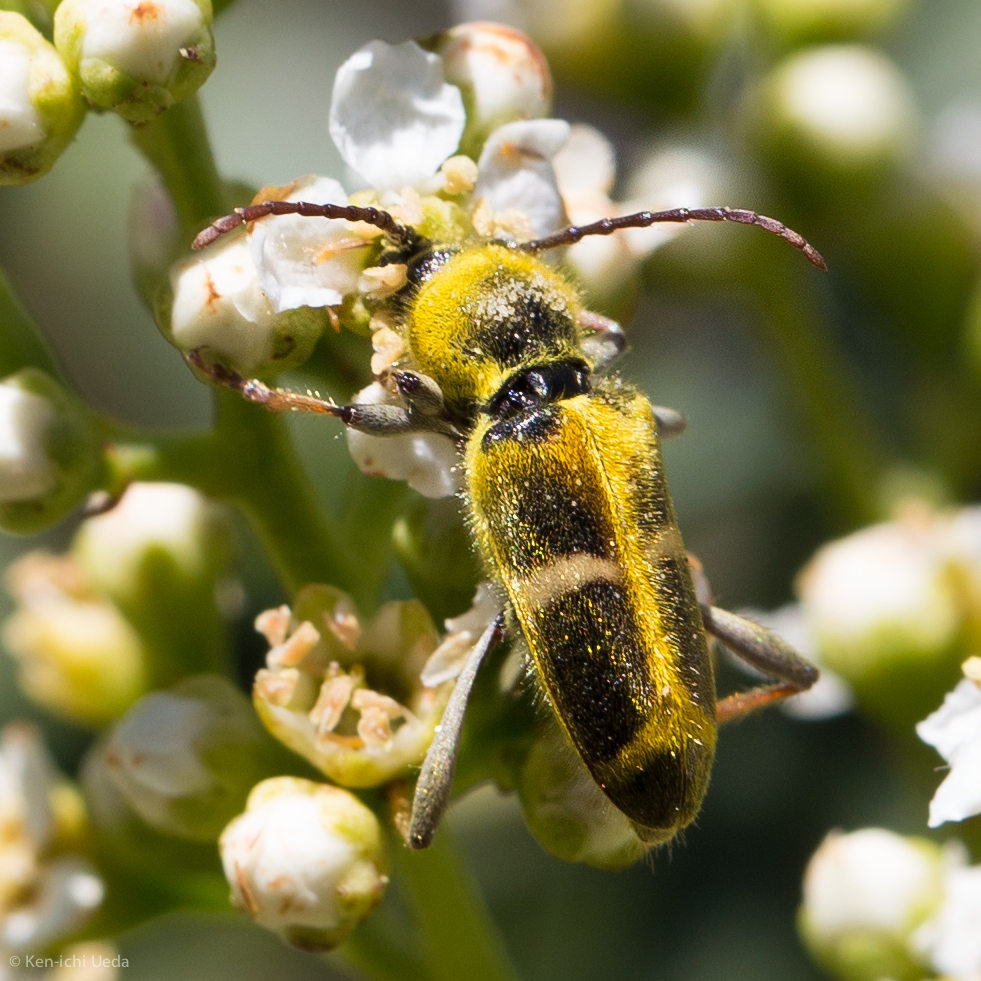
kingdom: Animalia
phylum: Arthropoda
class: Insecta
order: Coleoptera
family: Cerambycidae
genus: Triodoclytus
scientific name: Triodoclytus lanifer
